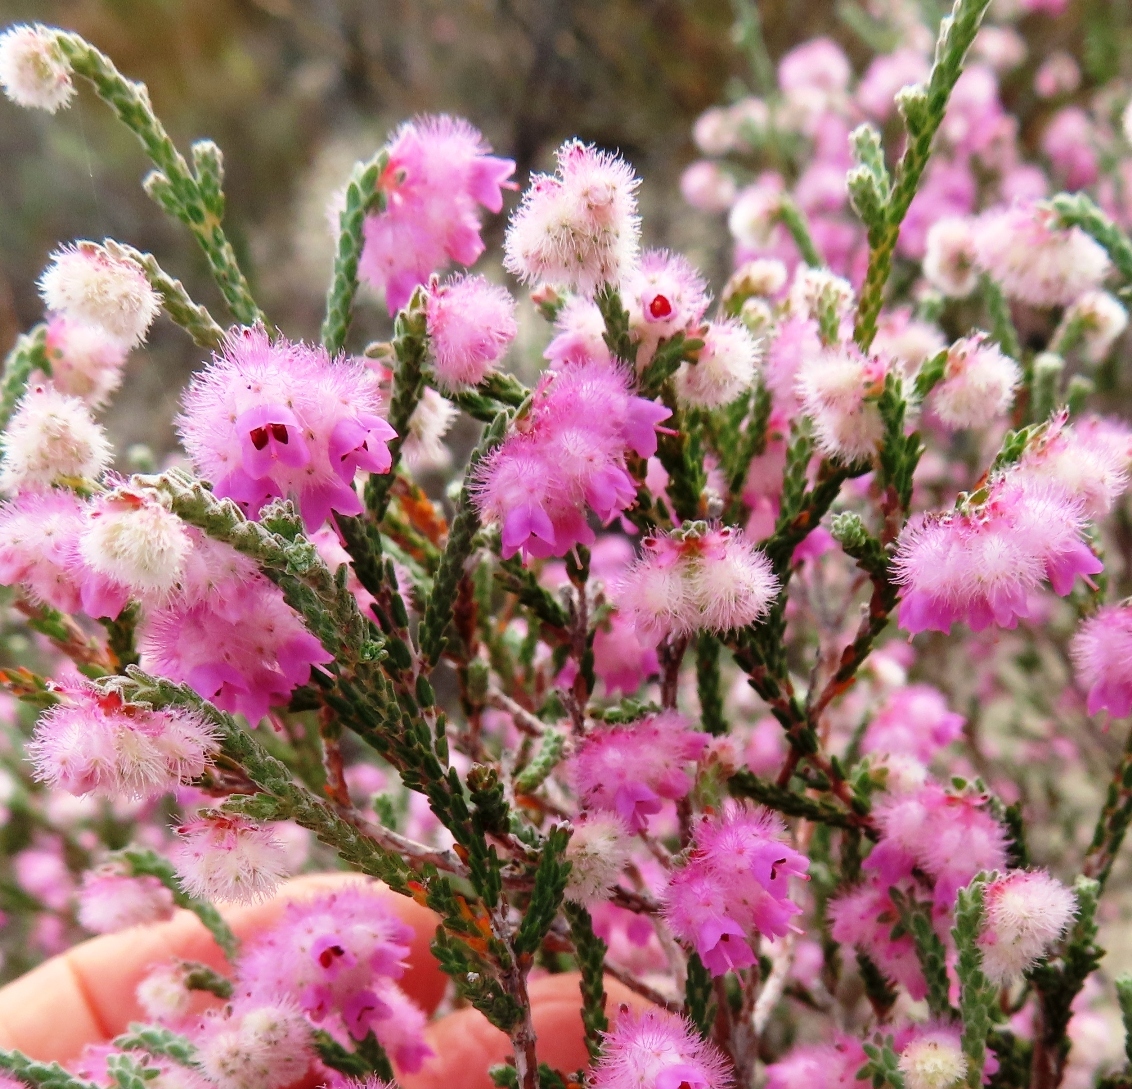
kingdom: Plantae
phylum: Tracheophyta
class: Magnoliopsida
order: Ericales
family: Ericaceae
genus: Erica
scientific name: Erica plumosa
